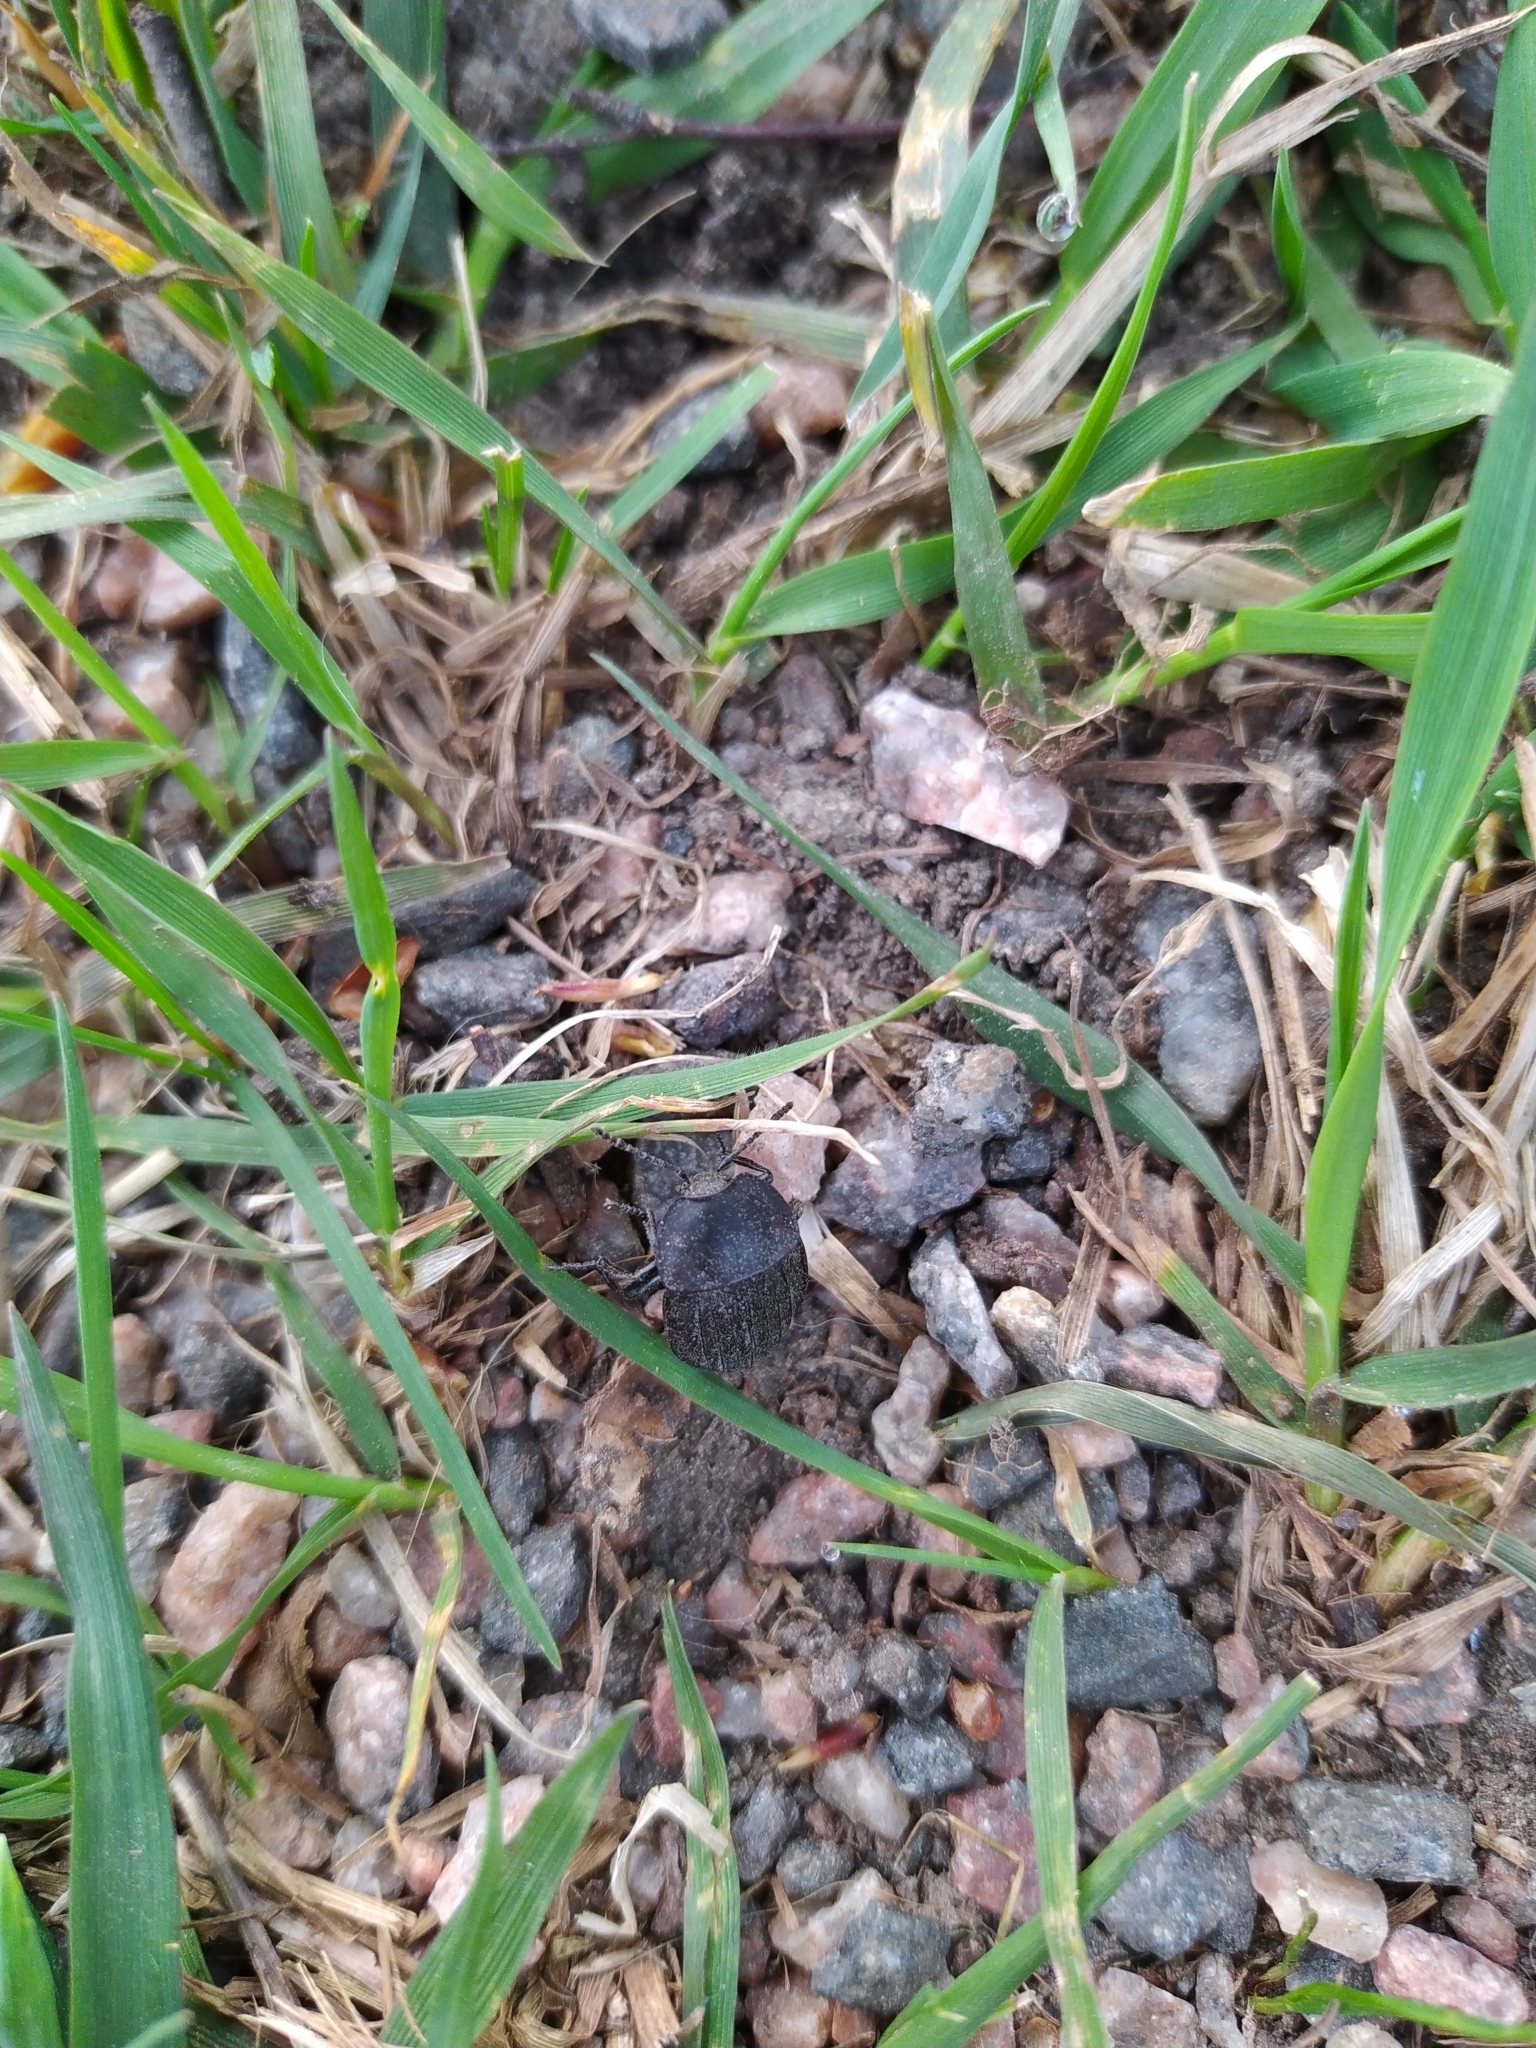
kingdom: Animalia
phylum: Arthropoda
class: Insecta
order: Coleoptera
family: Staphylinidae
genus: Silpha
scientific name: Silpha carinata
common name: Silphid beetle
